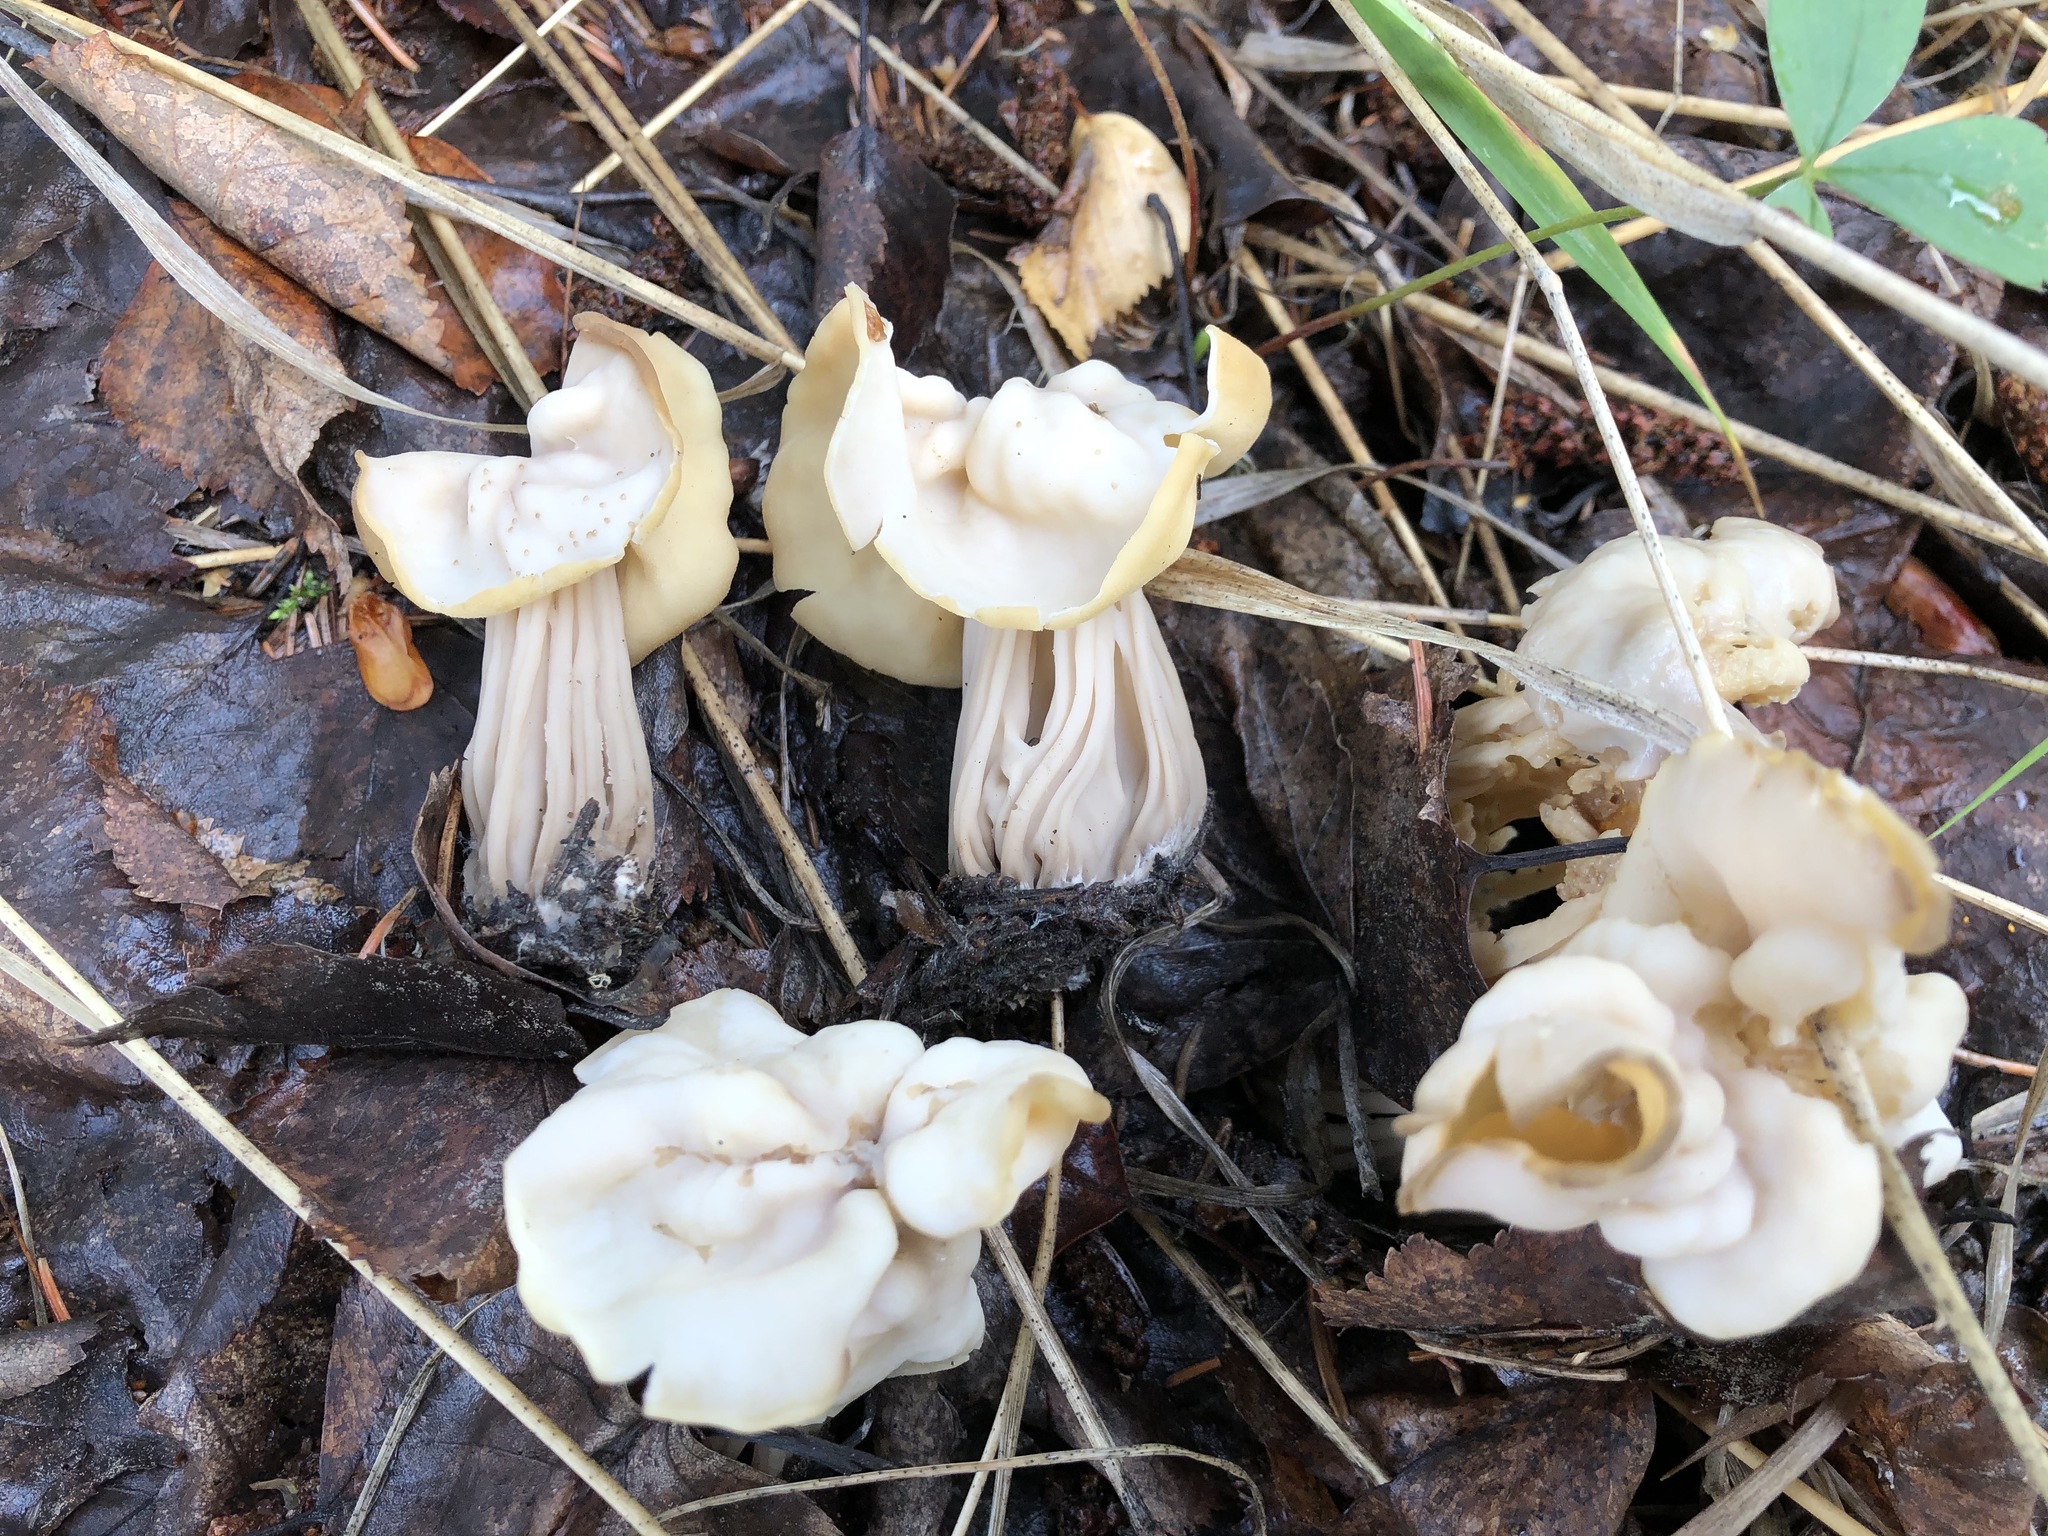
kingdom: Fungi
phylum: Ascomycota
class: Pezizomycetes
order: Pezizales
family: Helvellaceae
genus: Helvella
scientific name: Helvella crispa
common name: White saddle
